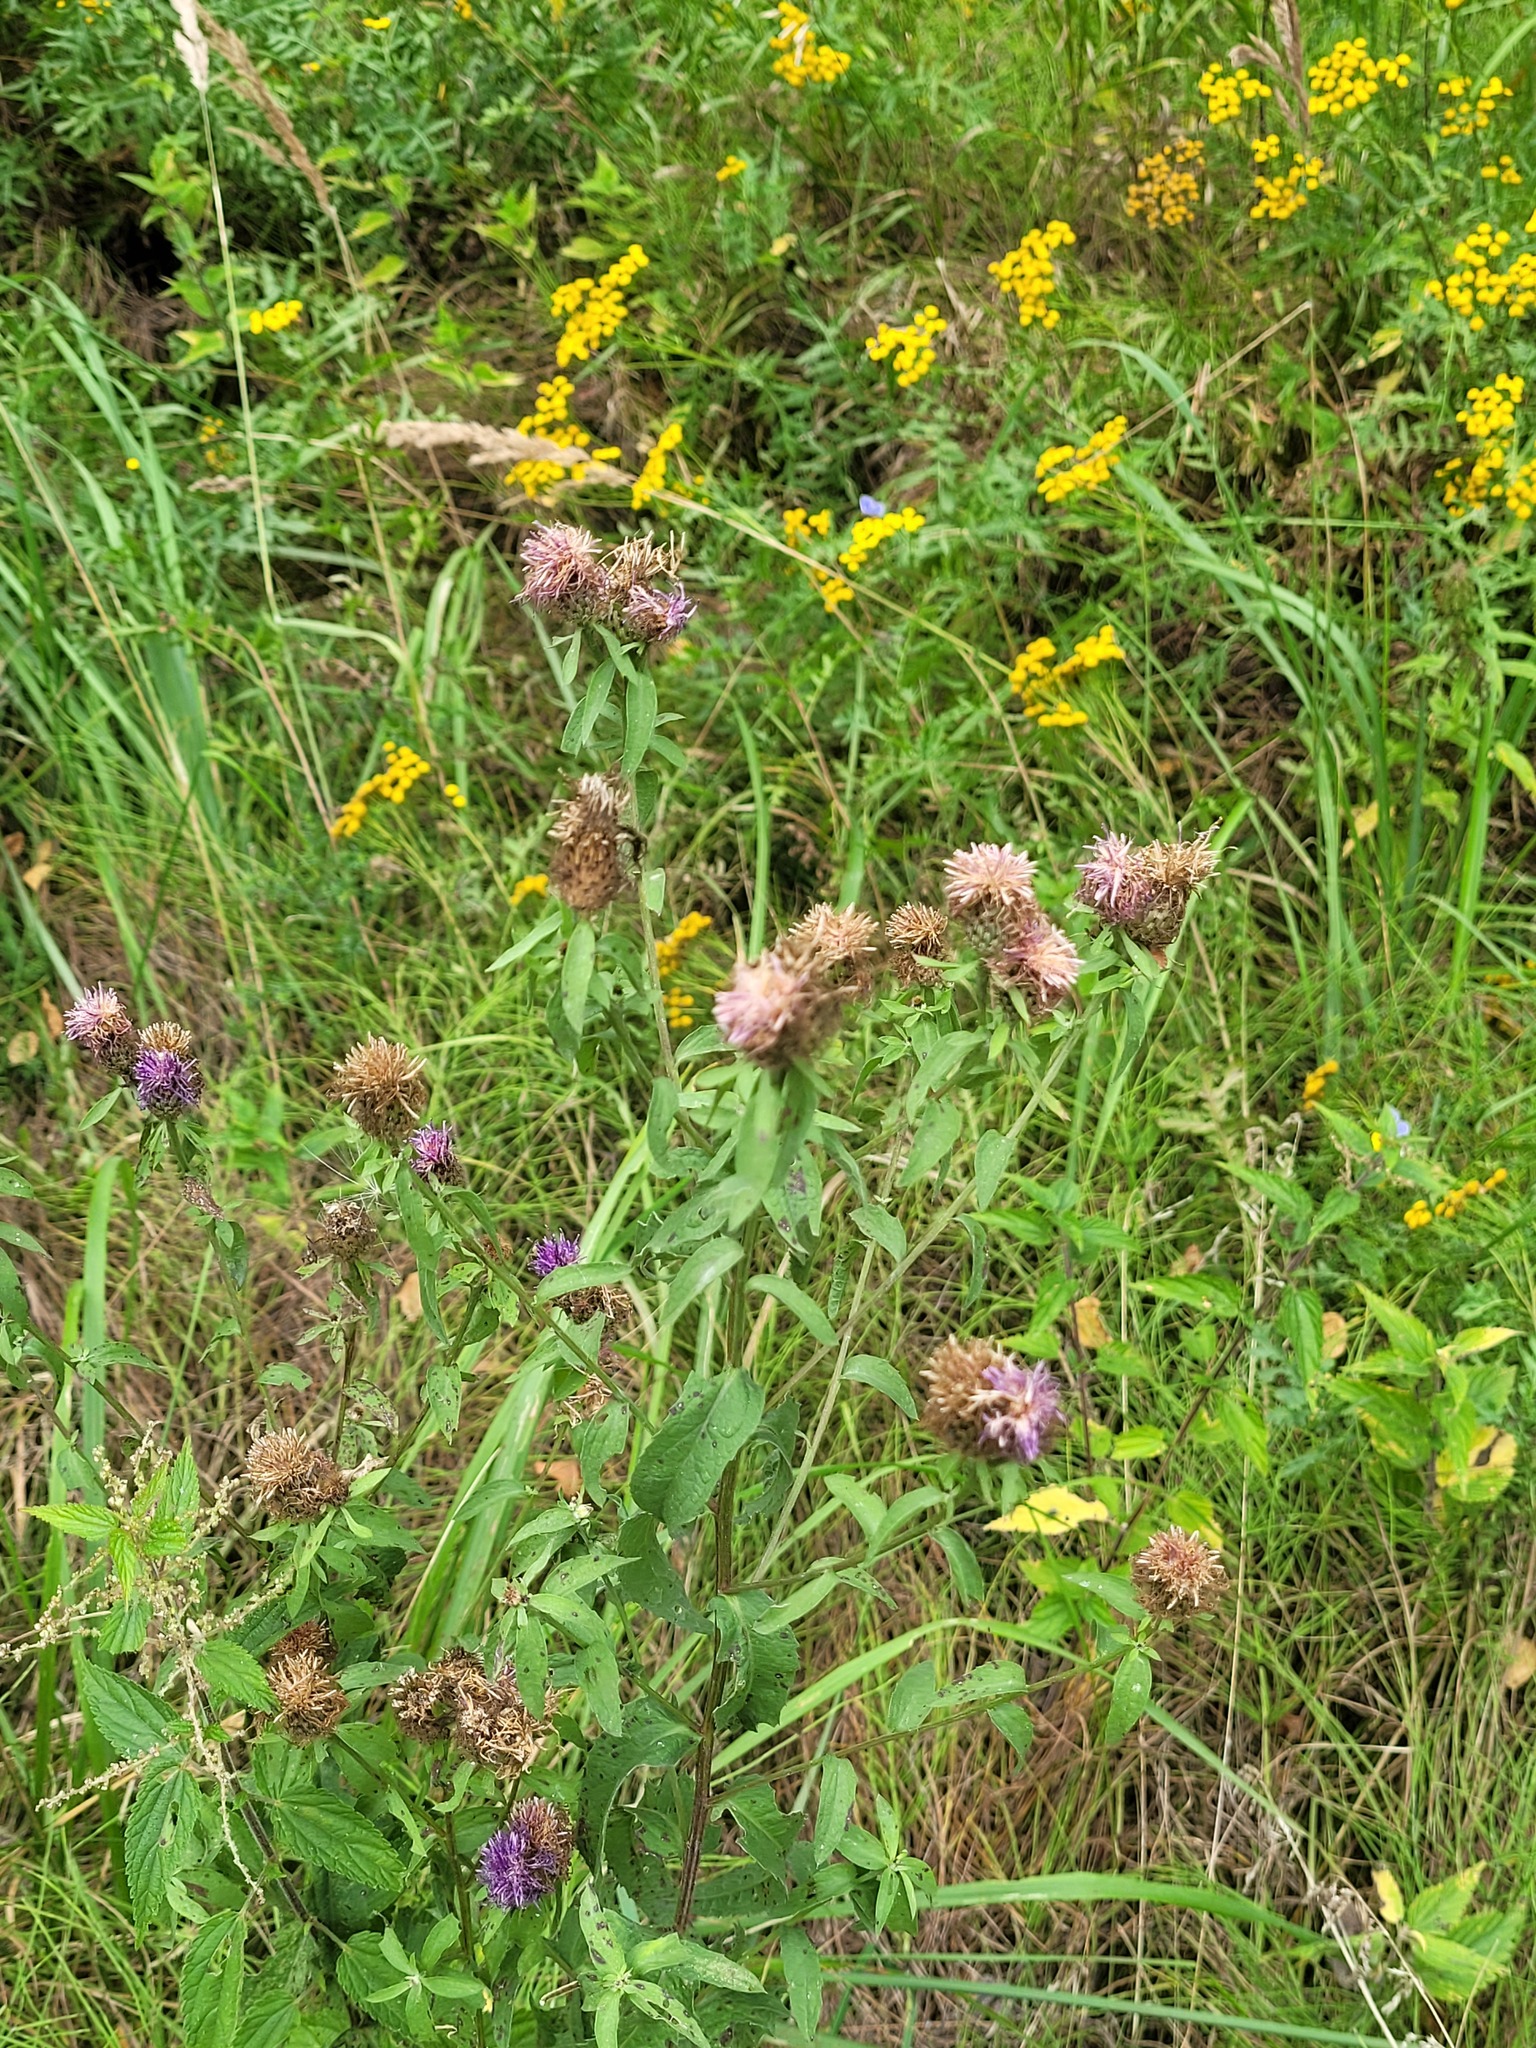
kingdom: Plantae
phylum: Tracheophyta
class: Magnoliopsida
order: Asterales
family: Asteraceae
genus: Centaurea
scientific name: Centaurea pseudophrygia
